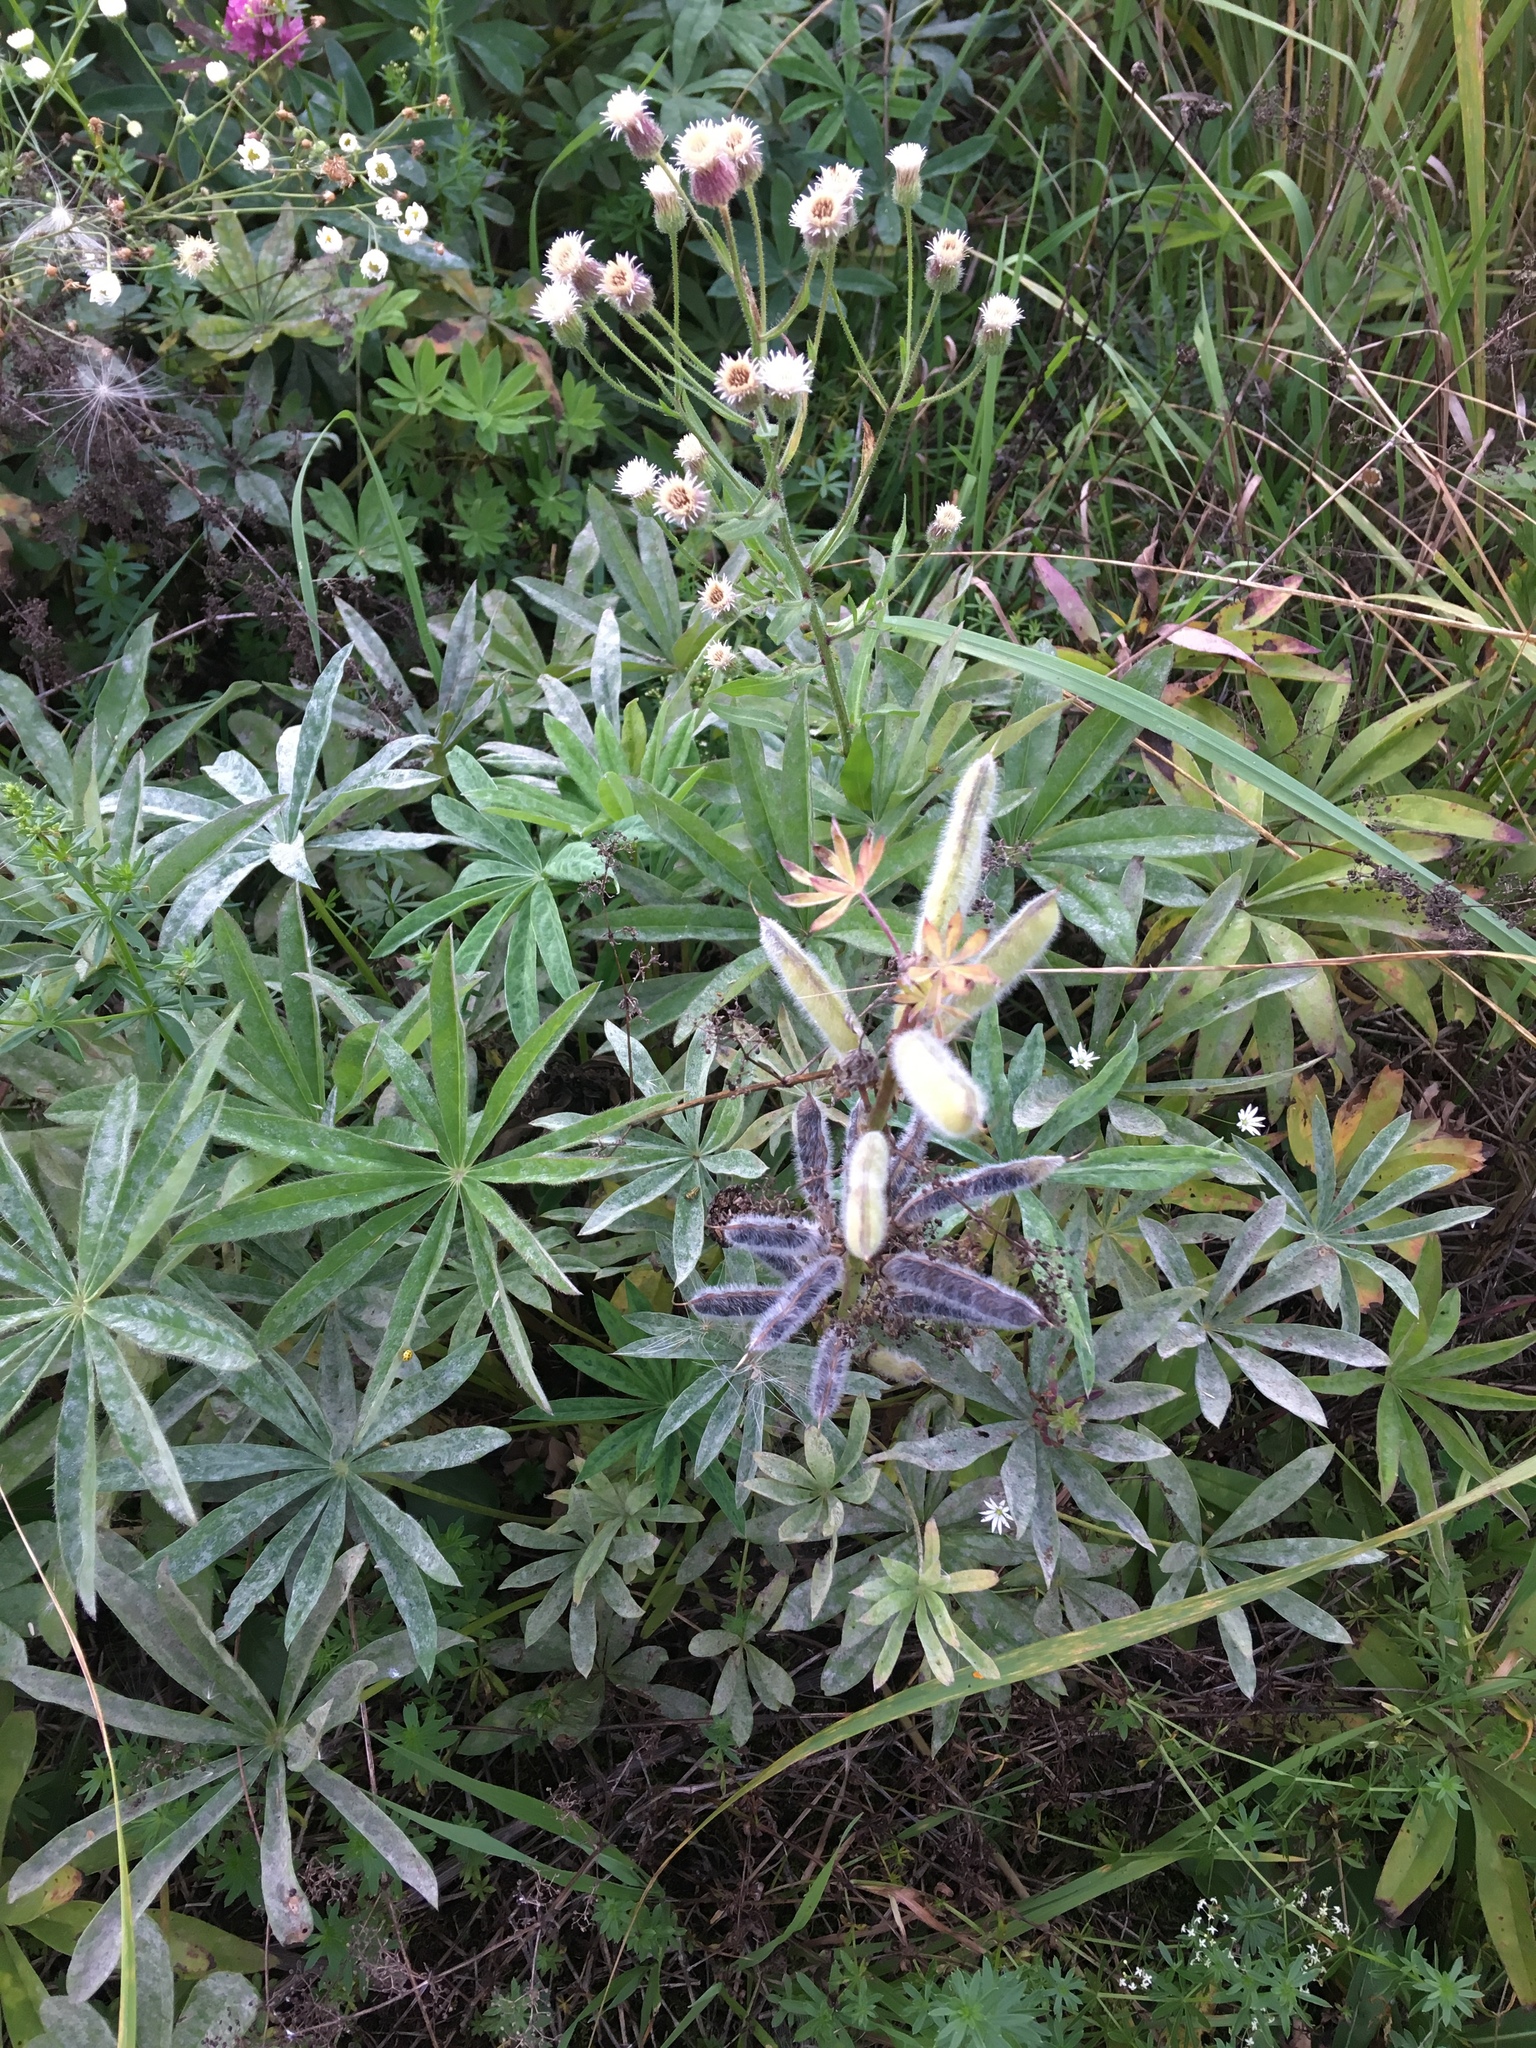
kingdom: Plantae
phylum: Tracheophyta
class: Magnoliopsida
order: Fabales
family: Fabaceae
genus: Lupinus
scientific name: Lupinus polyphyllus
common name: Garden lupin
